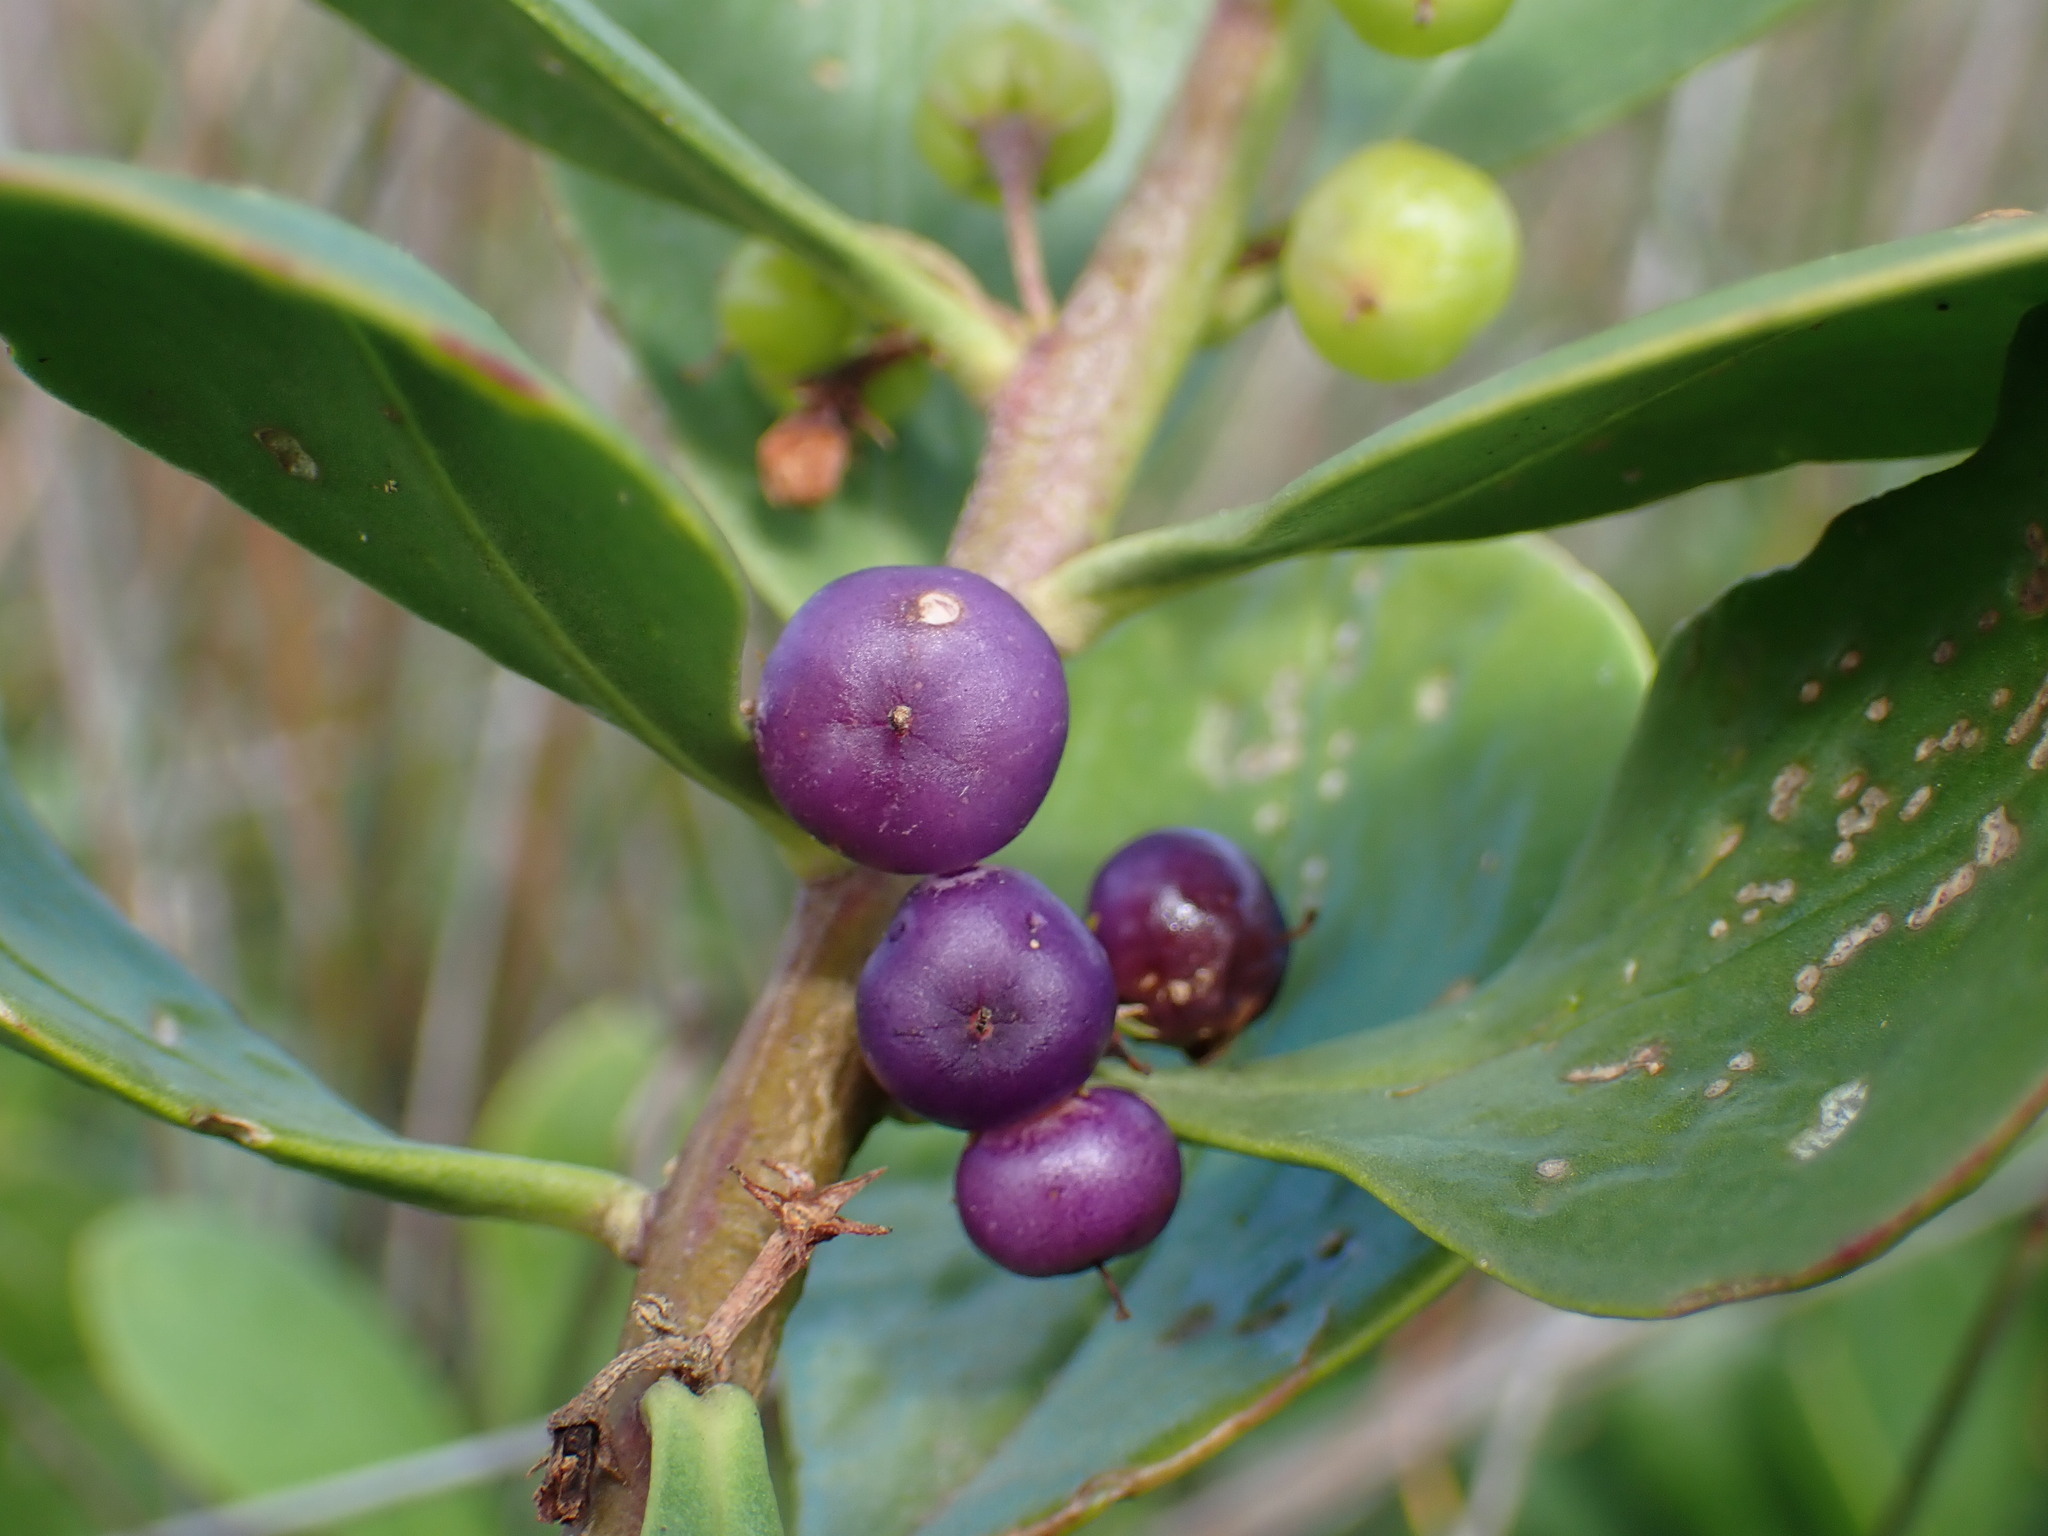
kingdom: Plantae
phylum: Tracheophyta
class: Magnoliopsida
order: Lamiales
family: Scrophulariaceae
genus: Myoporum
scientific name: Myoporum boninense
